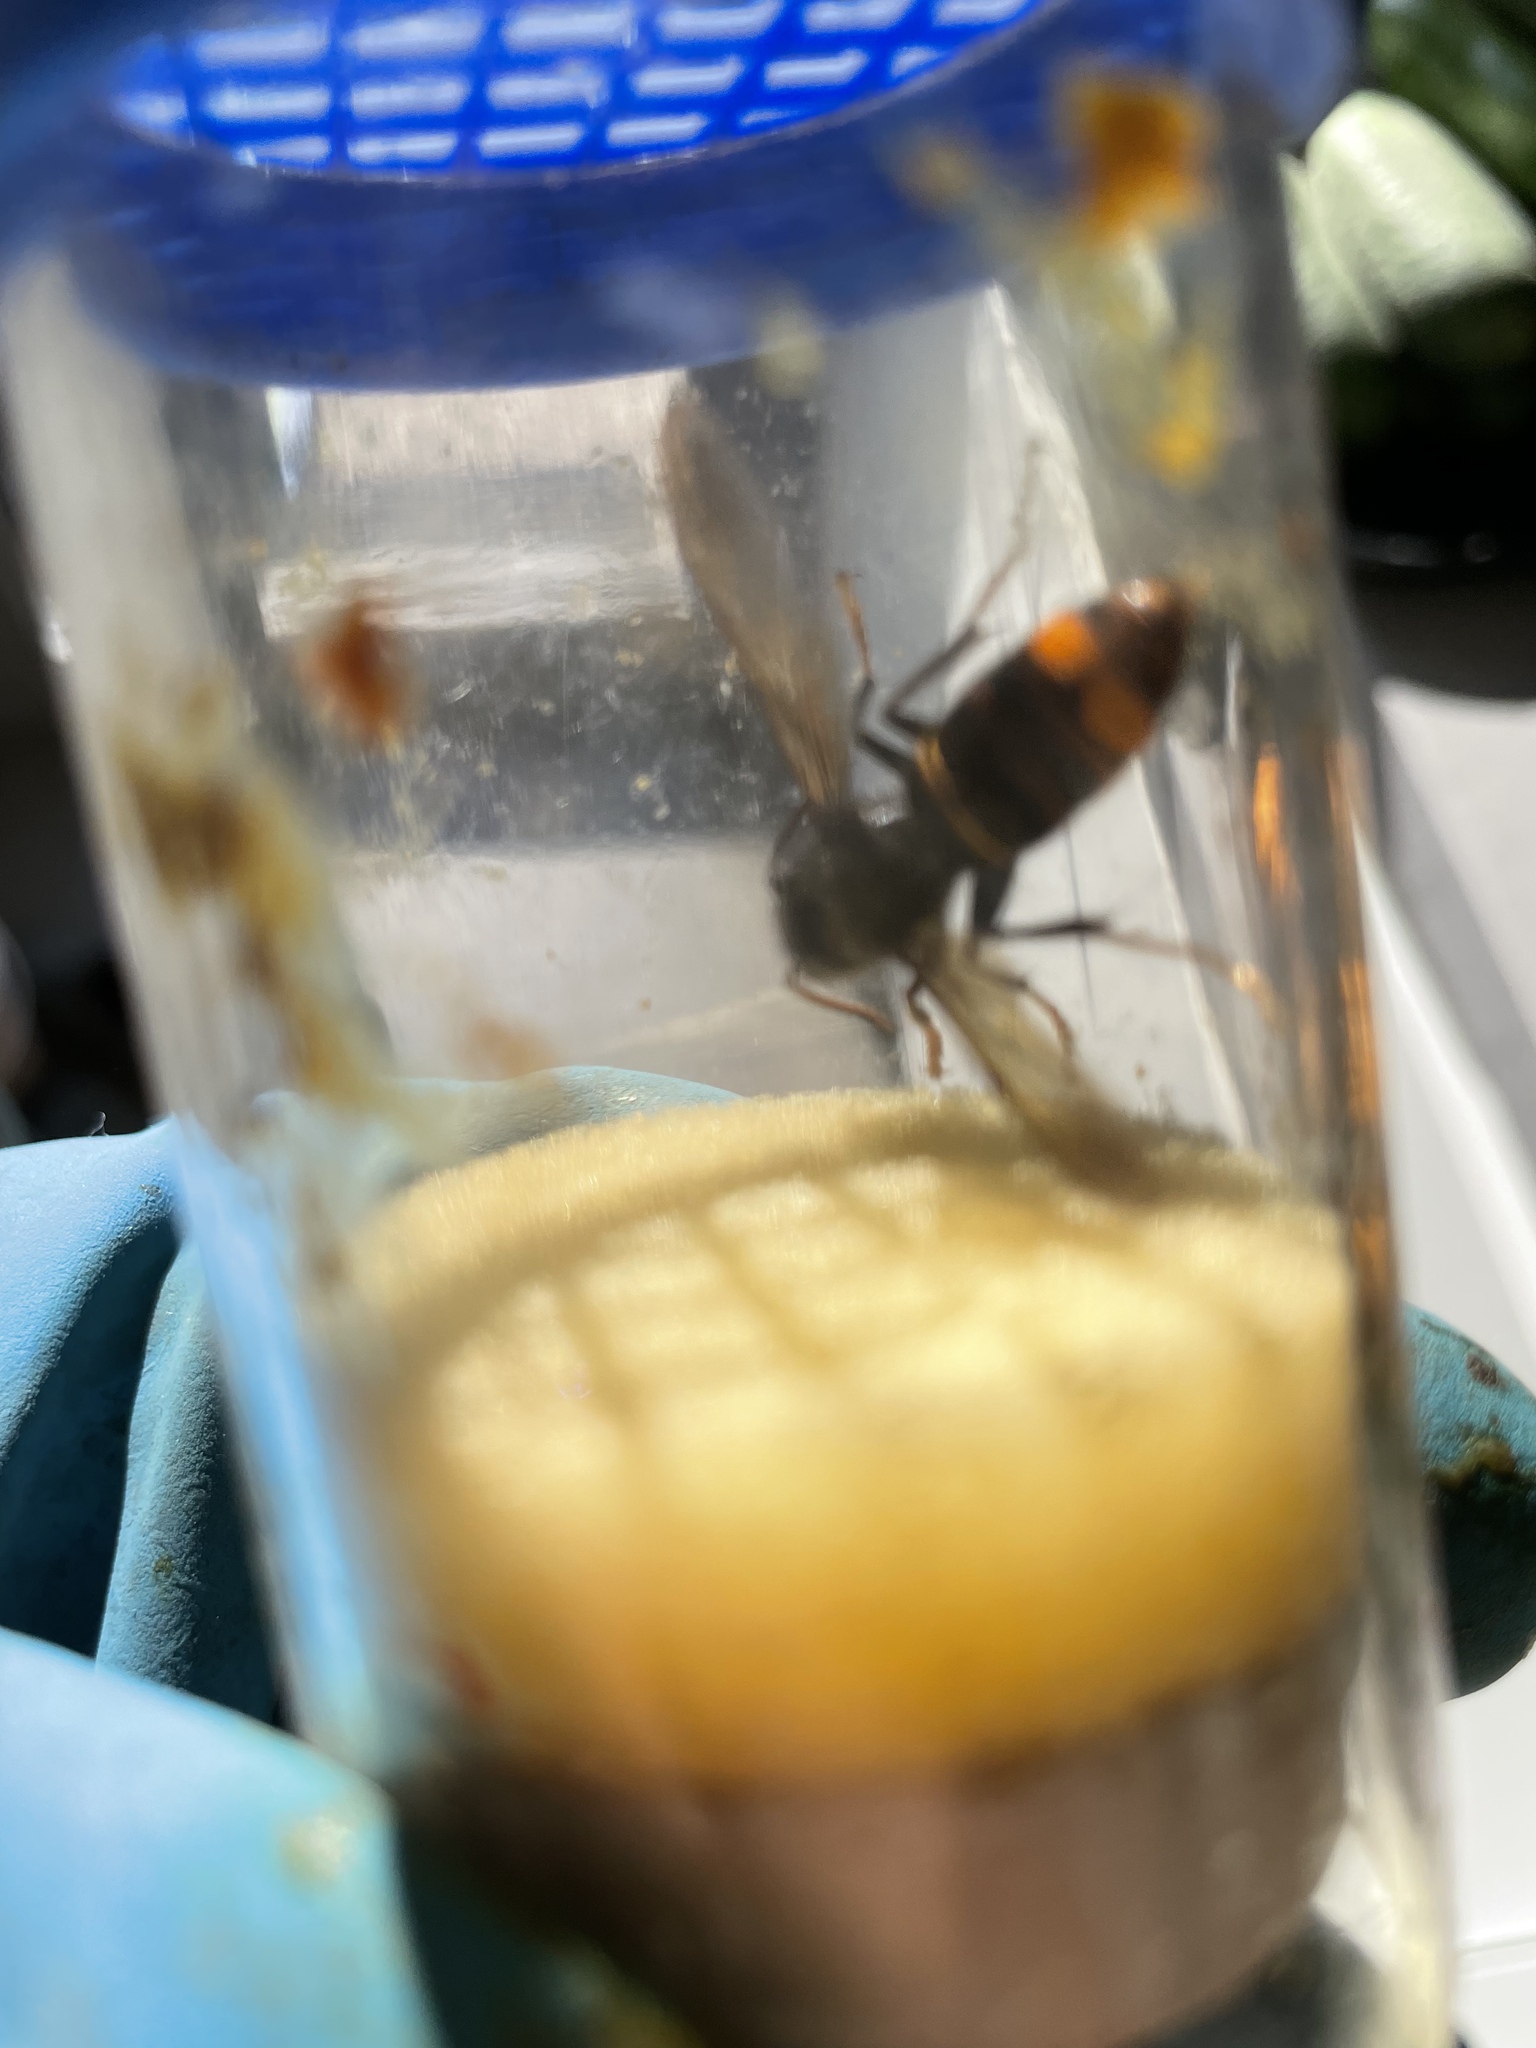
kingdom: Animalia
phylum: Arthropoda
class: Insecta
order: Hymenoptera
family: Vespidae
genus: Vespa
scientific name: Vespa velutina
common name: Asian hornet
